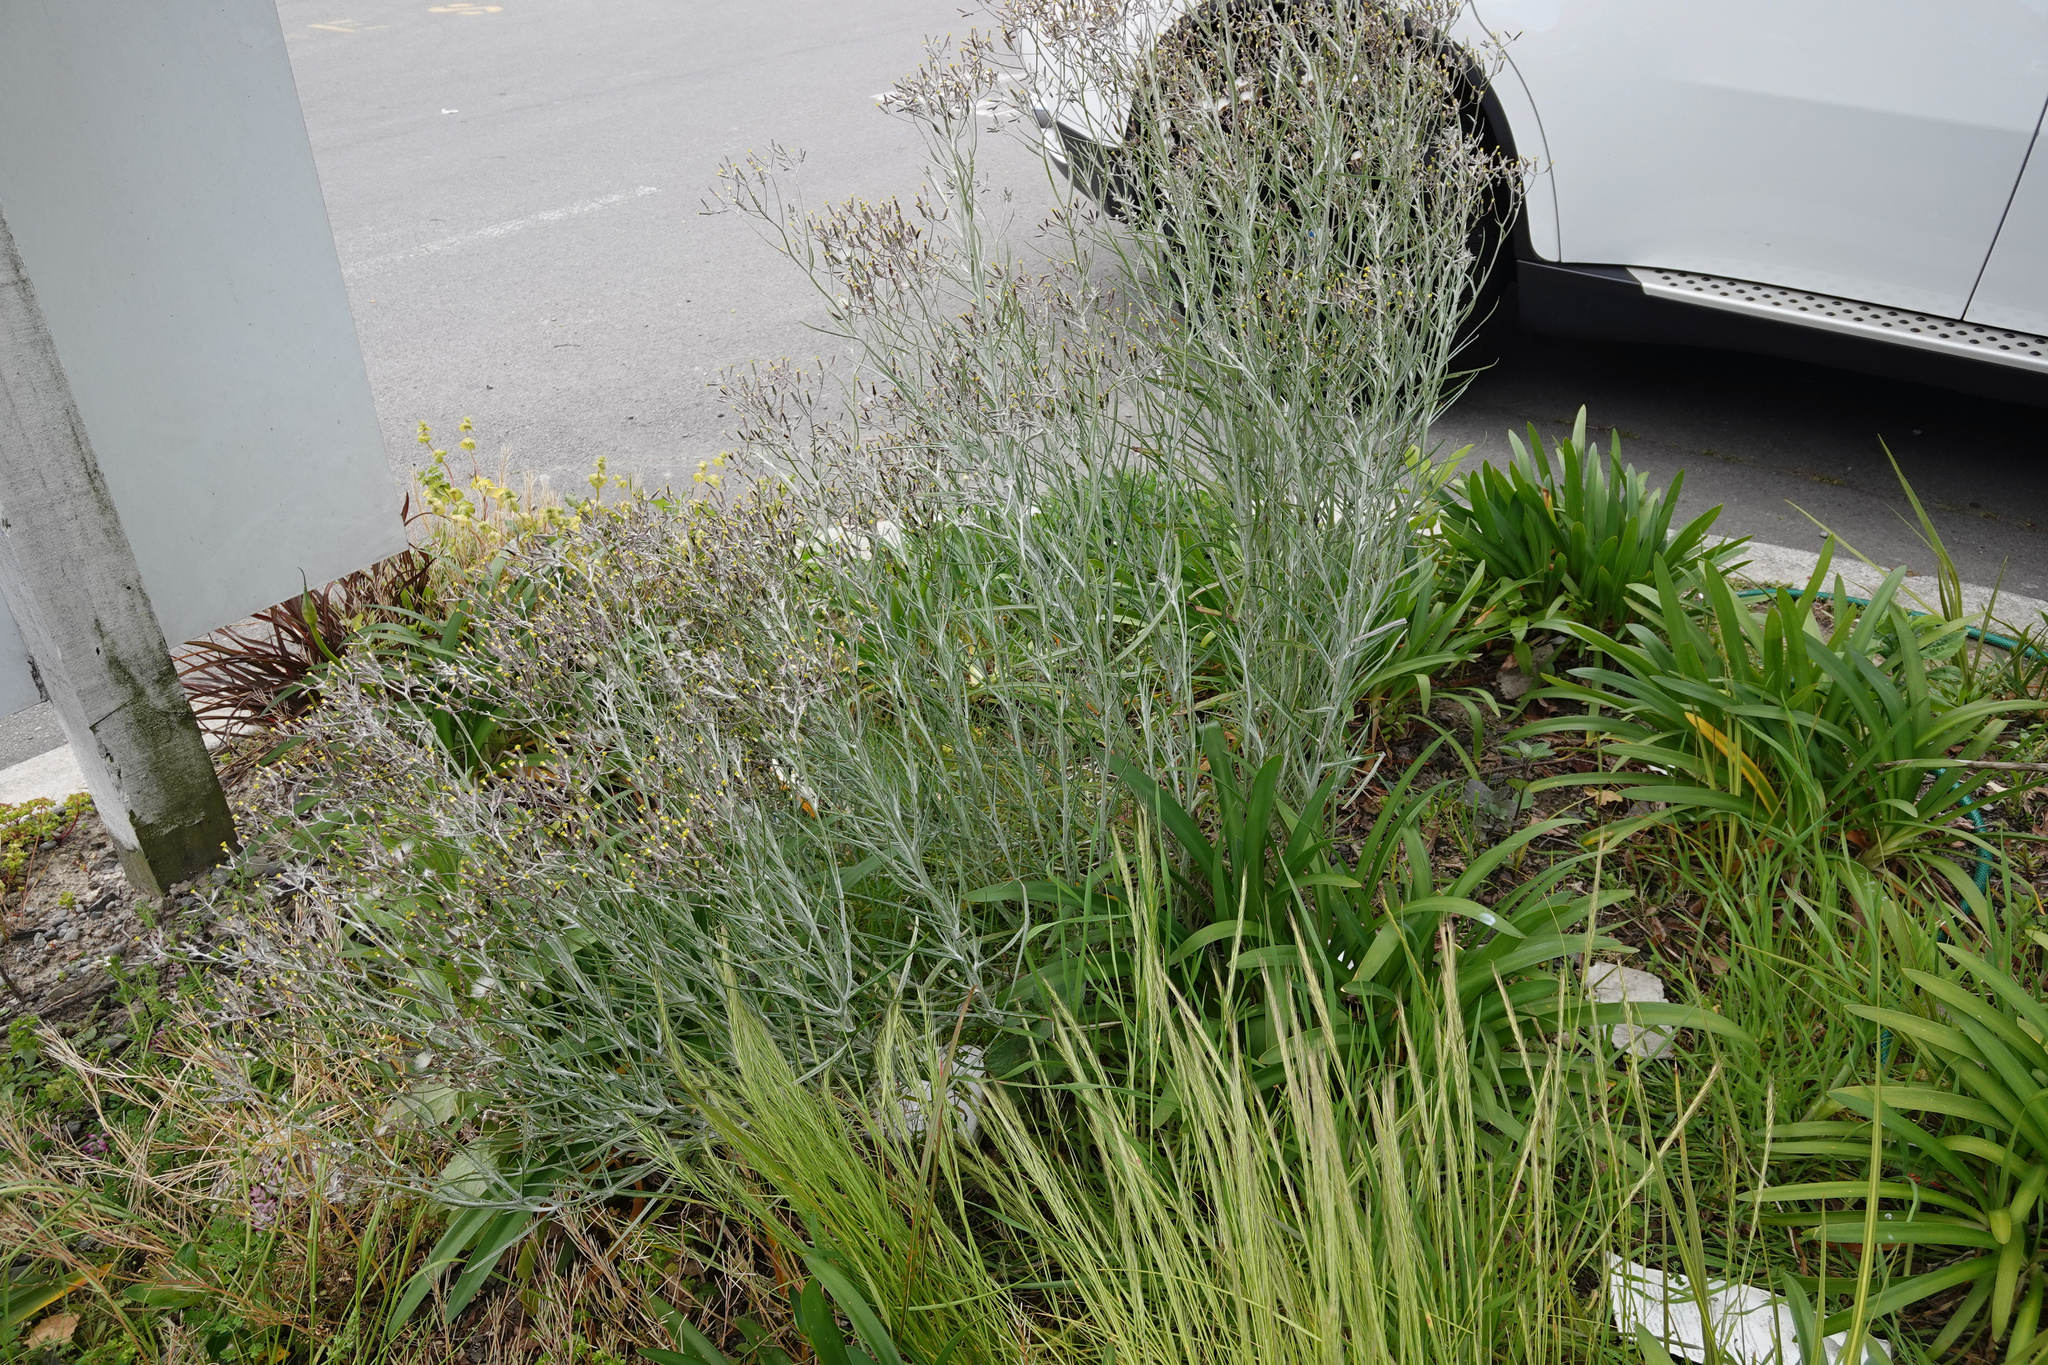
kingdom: Plantae
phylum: Tracheophyta
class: Magnoliopsida
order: Asterales
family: Asteraceae
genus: Senecio
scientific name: Senecio quadridentatus
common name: Cotton fireweed
